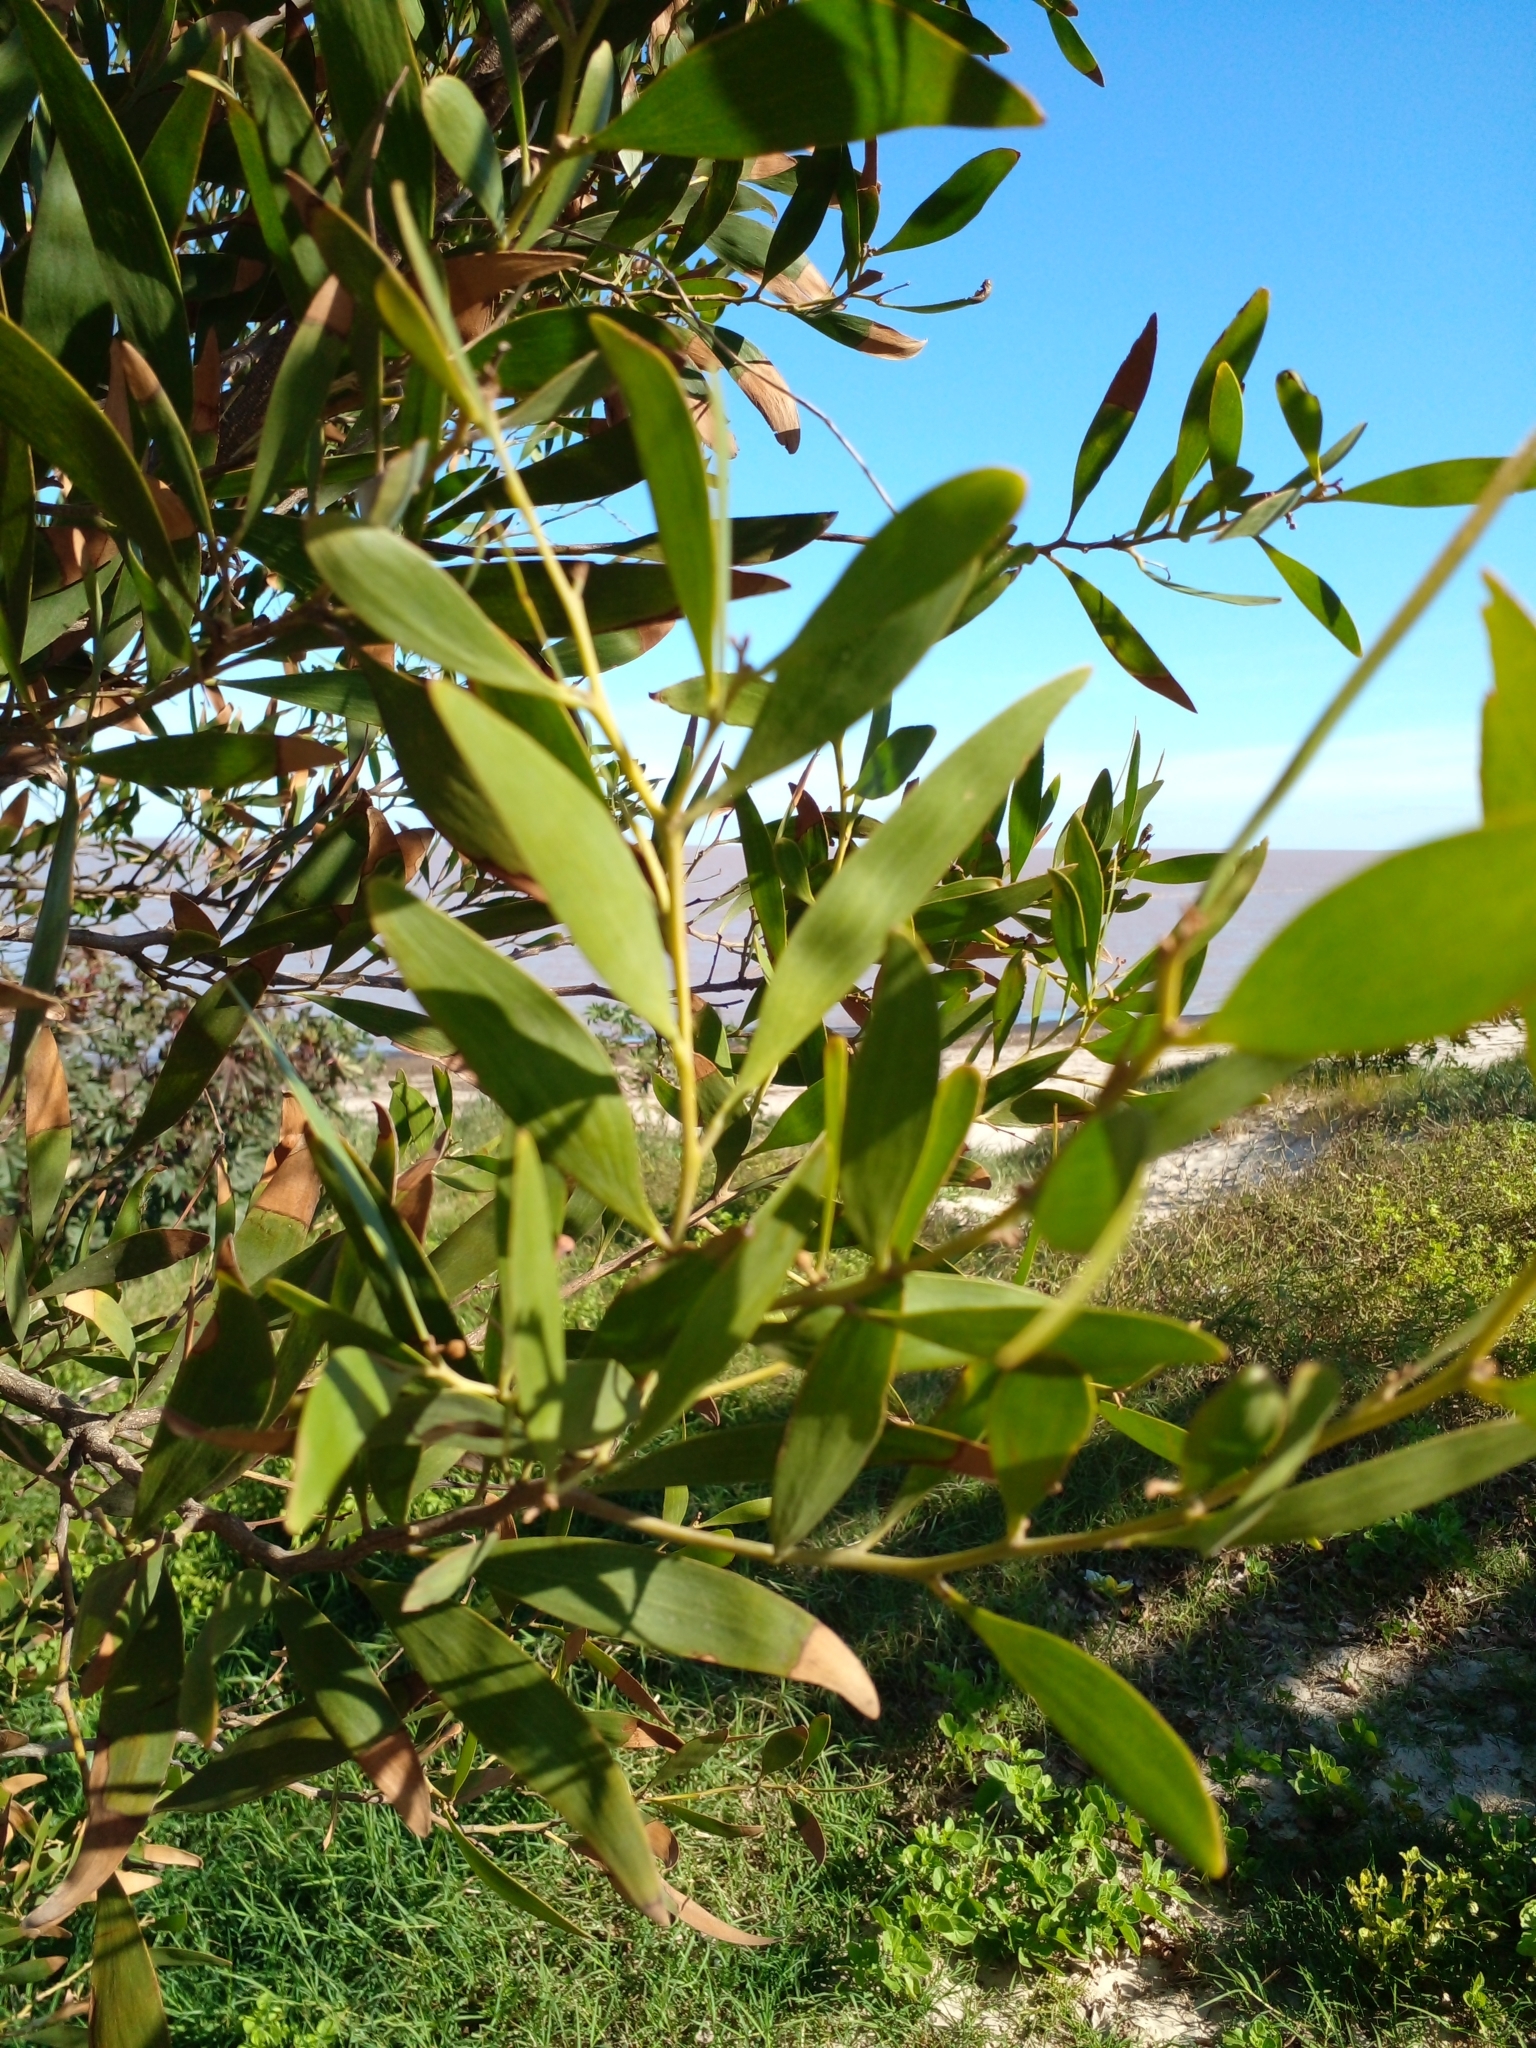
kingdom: Plantae
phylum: Tracheophyta
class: Magnoliopsida
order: Fabales
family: Fabaceae
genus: Acacia
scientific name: Acacia melanoxylon
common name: Blackwood
